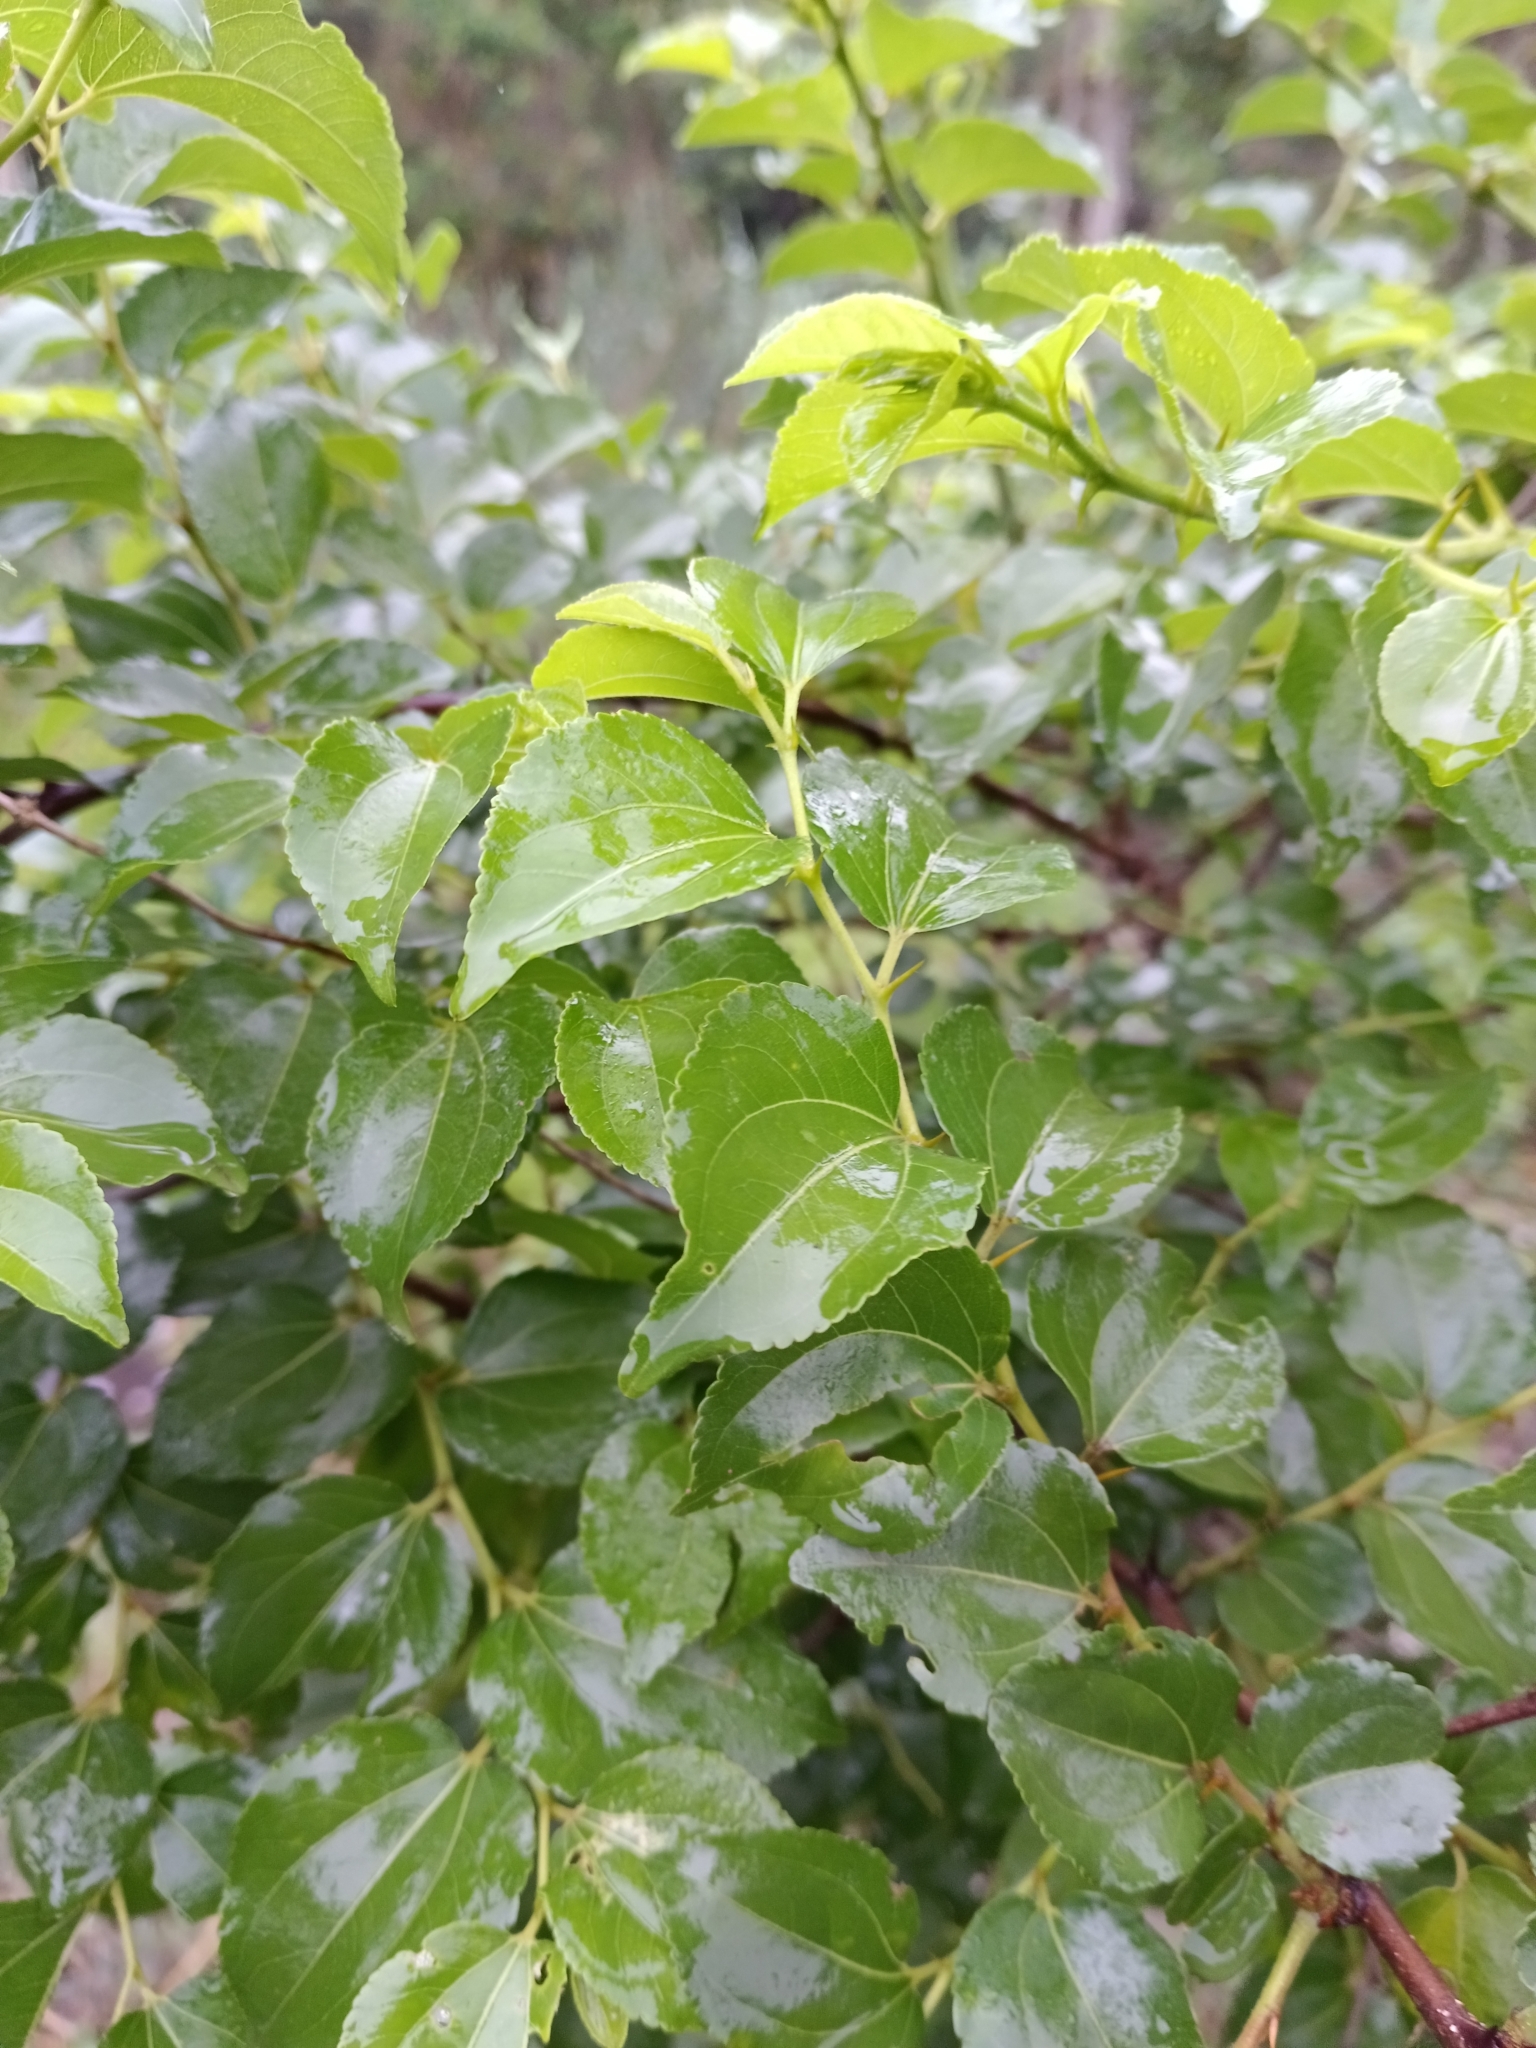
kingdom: Plantae
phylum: Tracheophyta
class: Magnoliopsida
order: Rosales
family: Rhamnaceae
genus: Ziziphus
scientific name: Ziziphus mucronata
